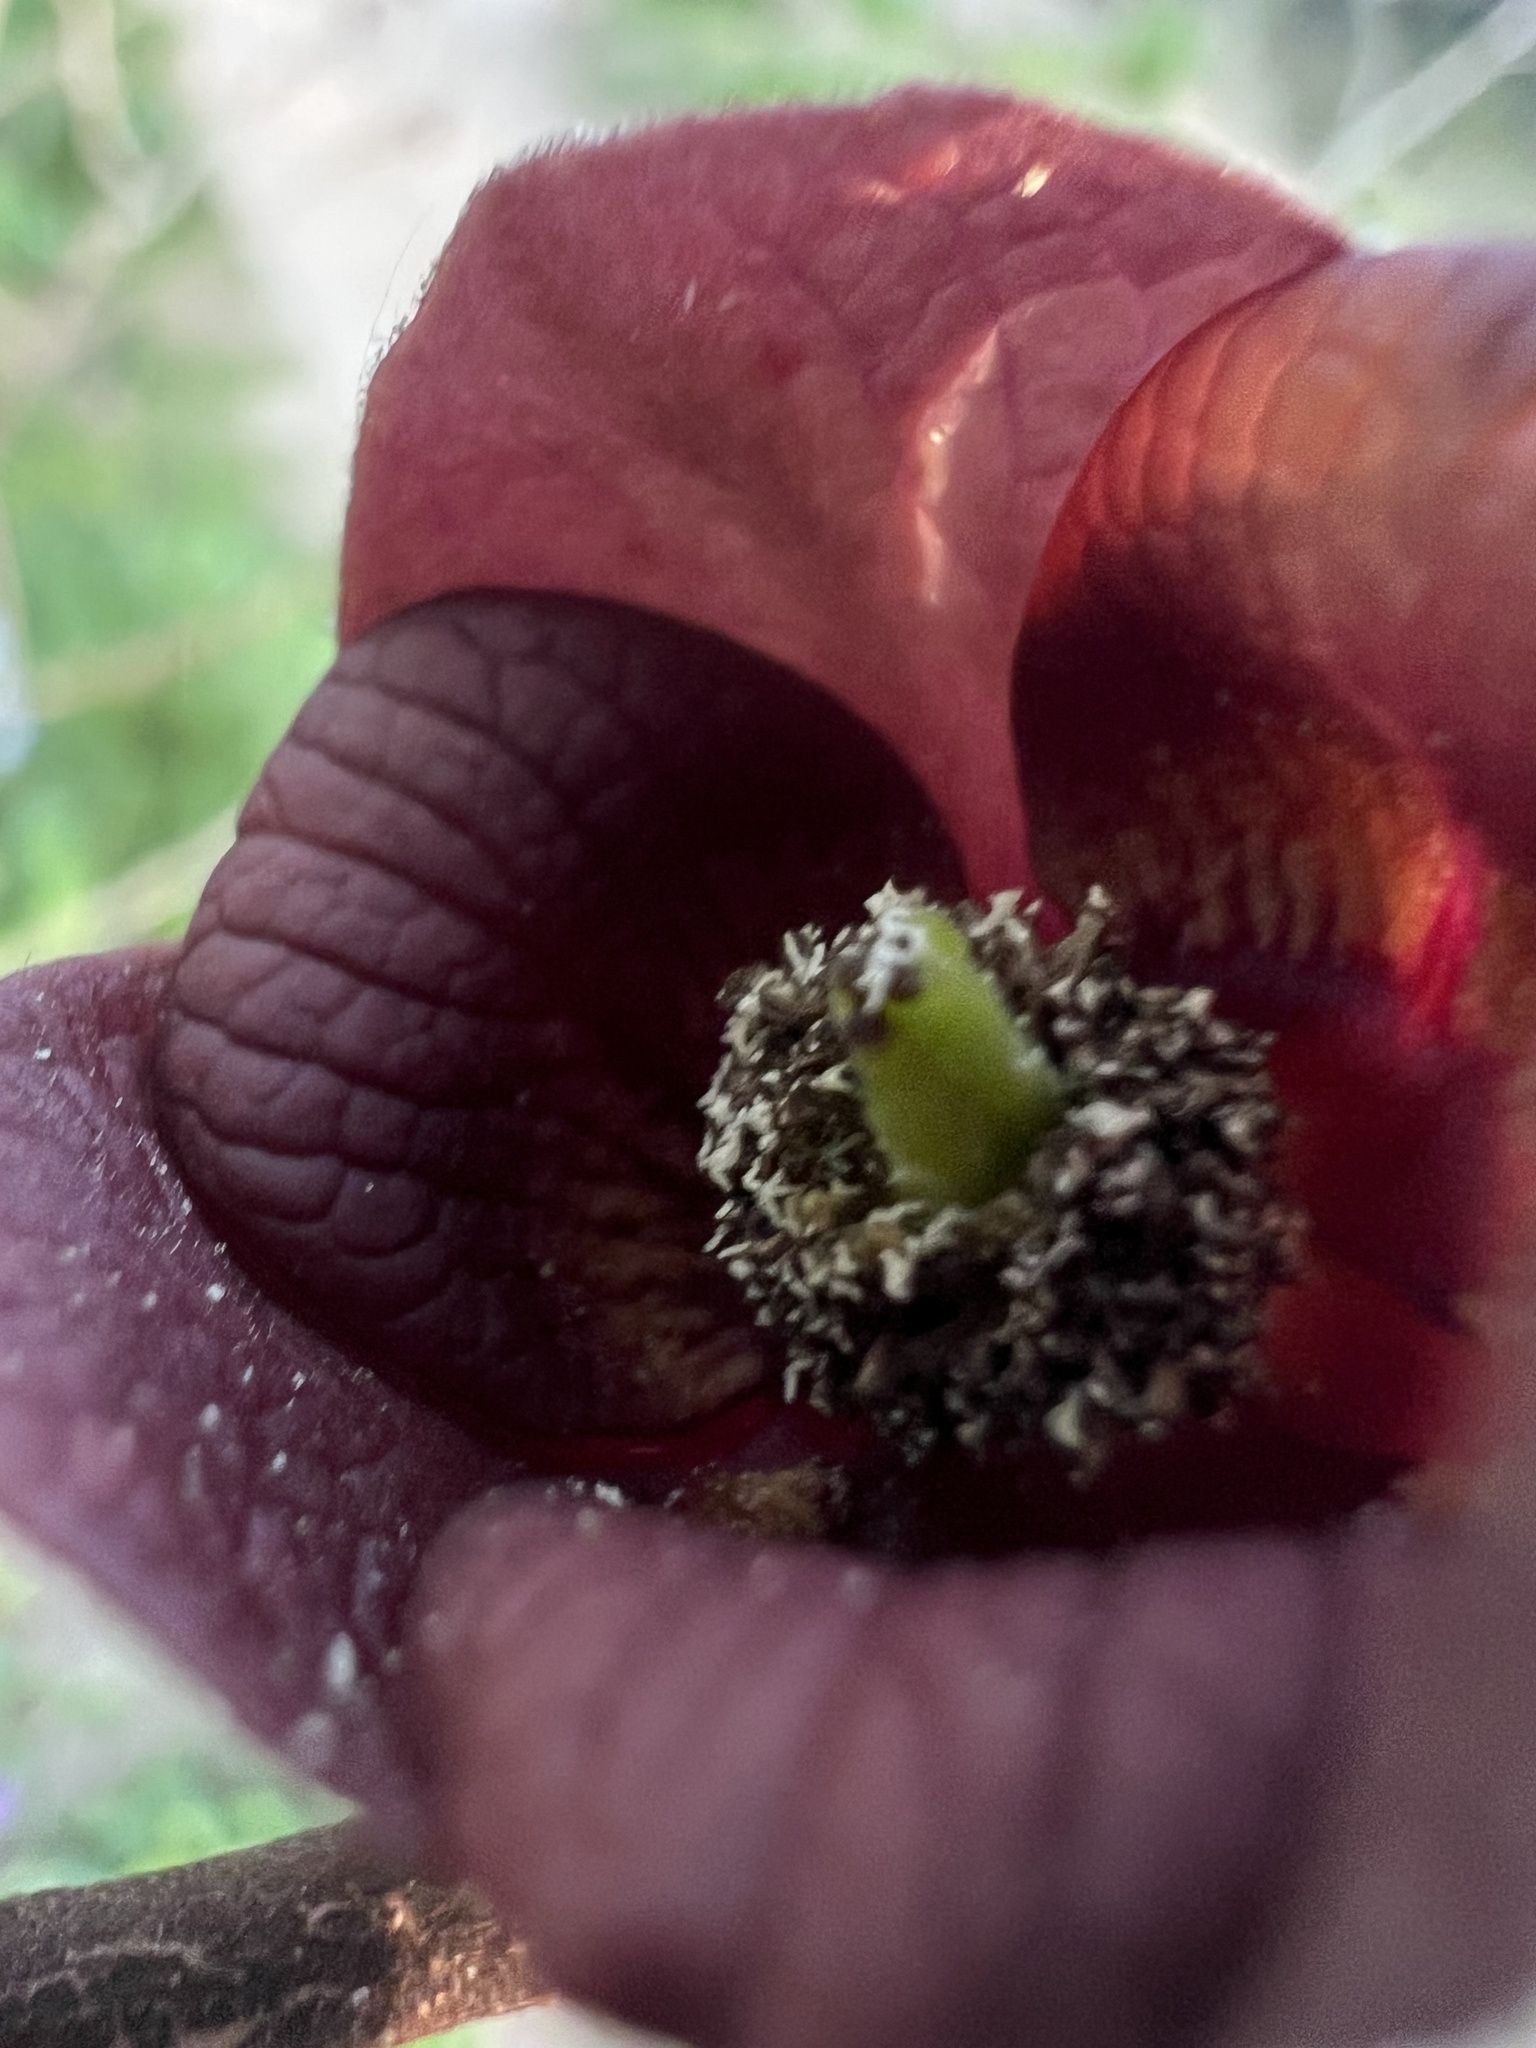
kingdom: Plantae
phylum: Tracheophyta
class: Magnoliopsida
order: Magnoliales
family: Annonaceae
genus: Asimina
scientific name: Asimina triloba
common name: Dog-banana
